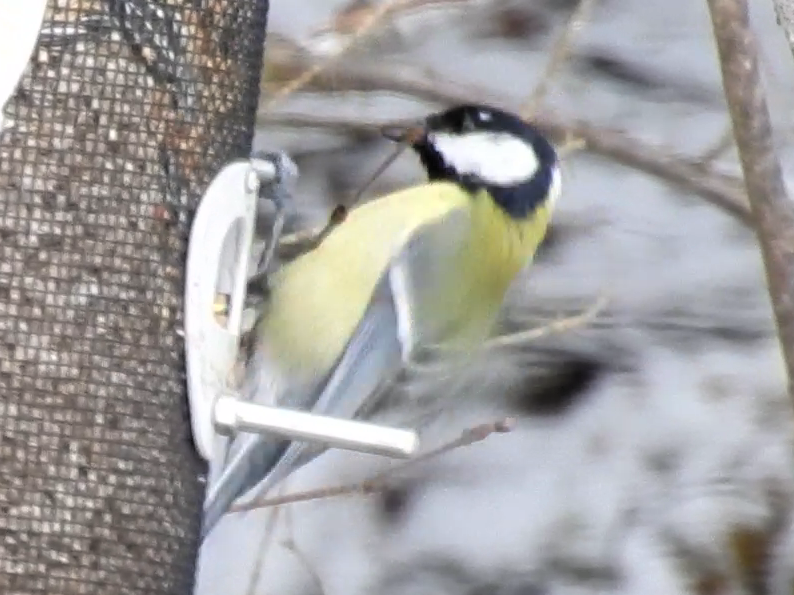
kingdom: Animalia
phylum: Chordata
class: Aves
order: Passeriformes
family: Paridae
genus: Parus
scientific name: Parus major
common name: Great tit
